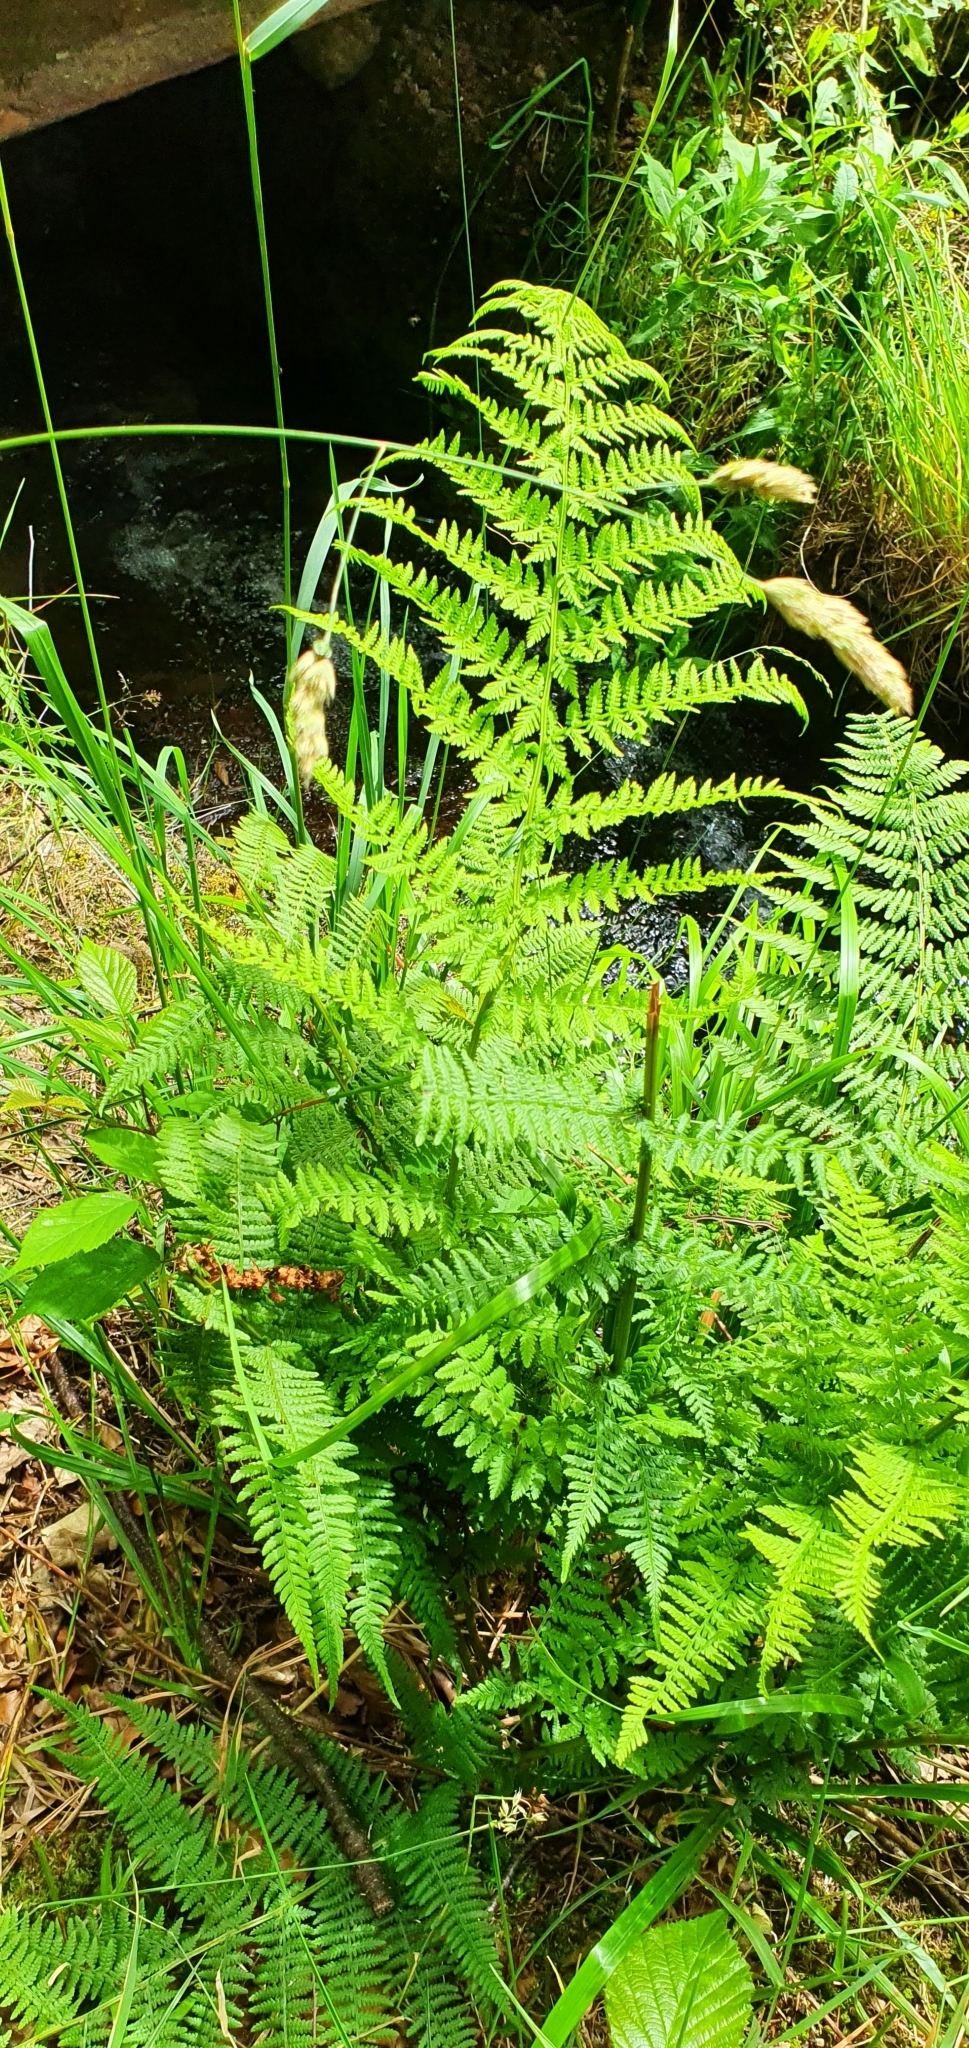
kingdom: Plantae
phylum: Tracheophyta
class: Polypodiopsida
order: Polypodiales
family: Athyriaceae
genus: Athyrium
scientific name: Athyrium filix-femina
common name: Lady fern
